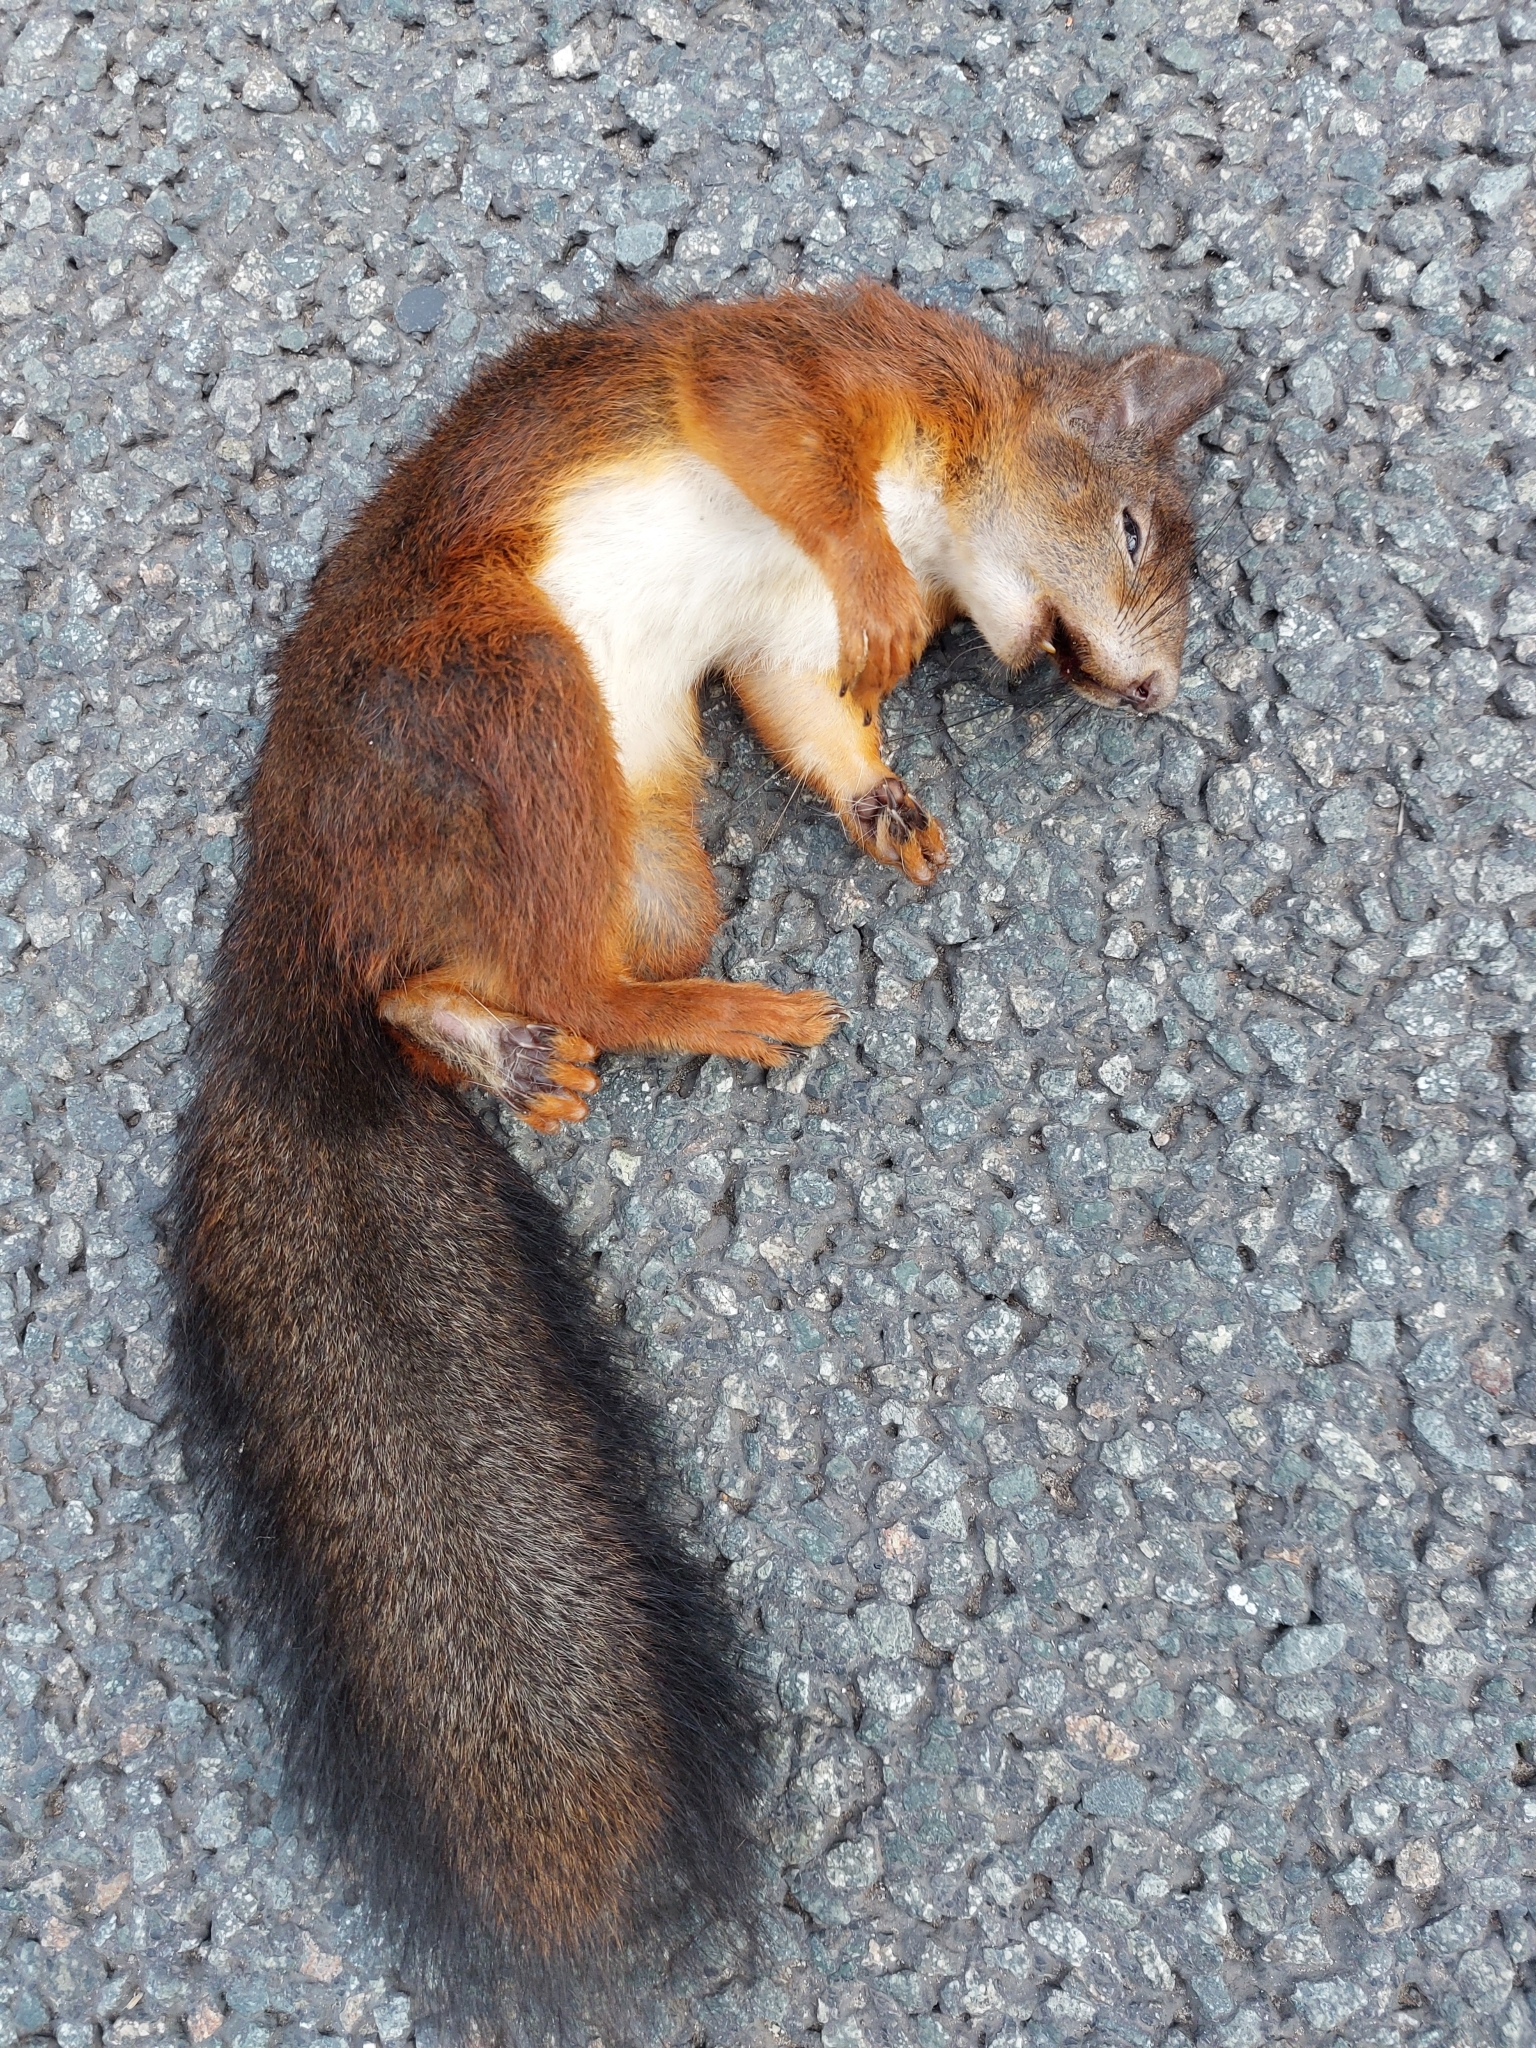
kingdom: Animalia
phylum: Chordata
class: Mammalia
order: Rodentia
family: Sciuridae
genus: Sciurus
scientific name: Sciurus vulgaris
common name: Eurasian red squirrel
